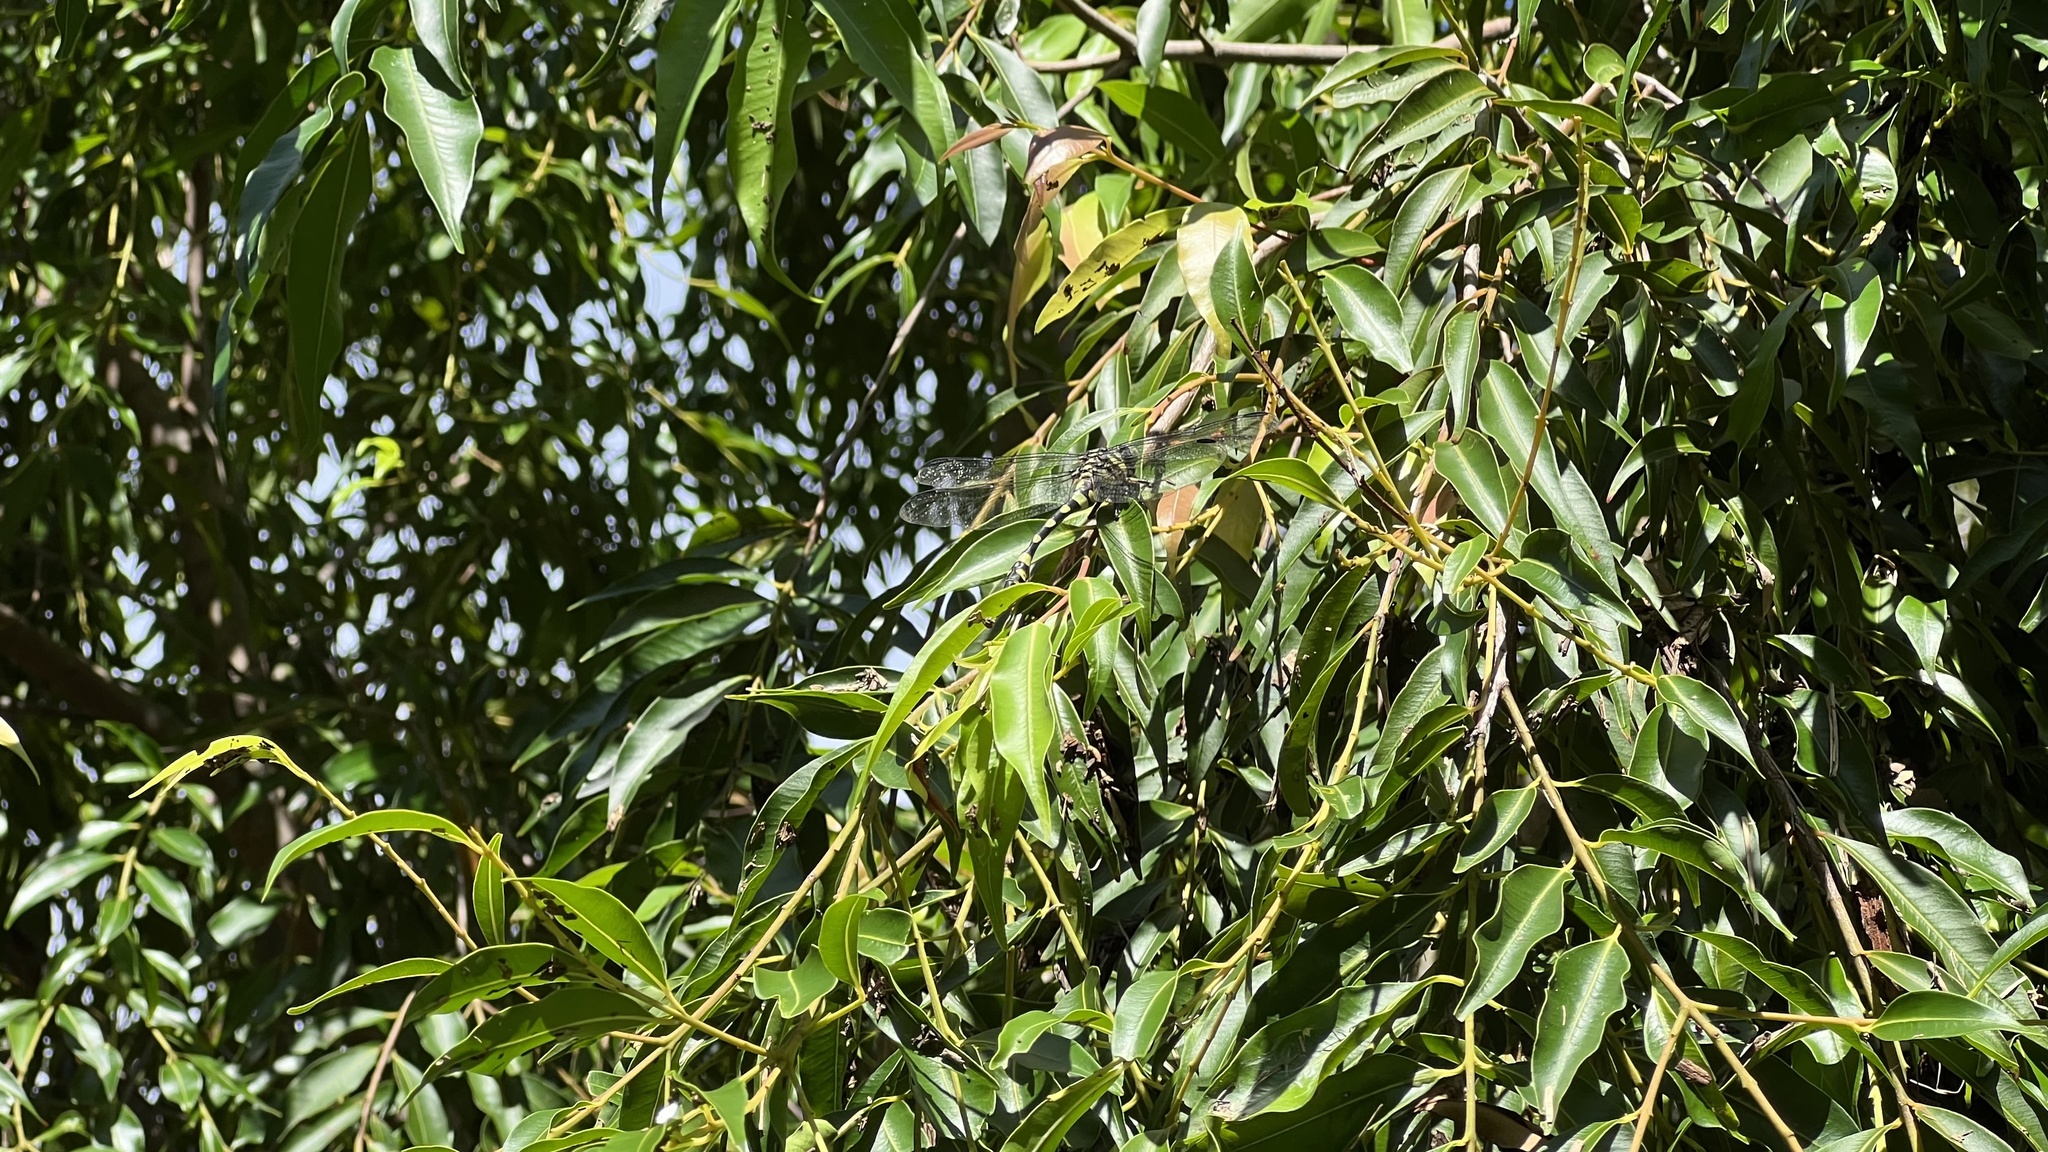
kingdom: Animalia
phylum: Arthropoda
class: Insecta
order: Odonata
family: Gomphidae
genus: Ictinogomphus
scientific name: Ictinogomphus australis
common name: Australian tiger
